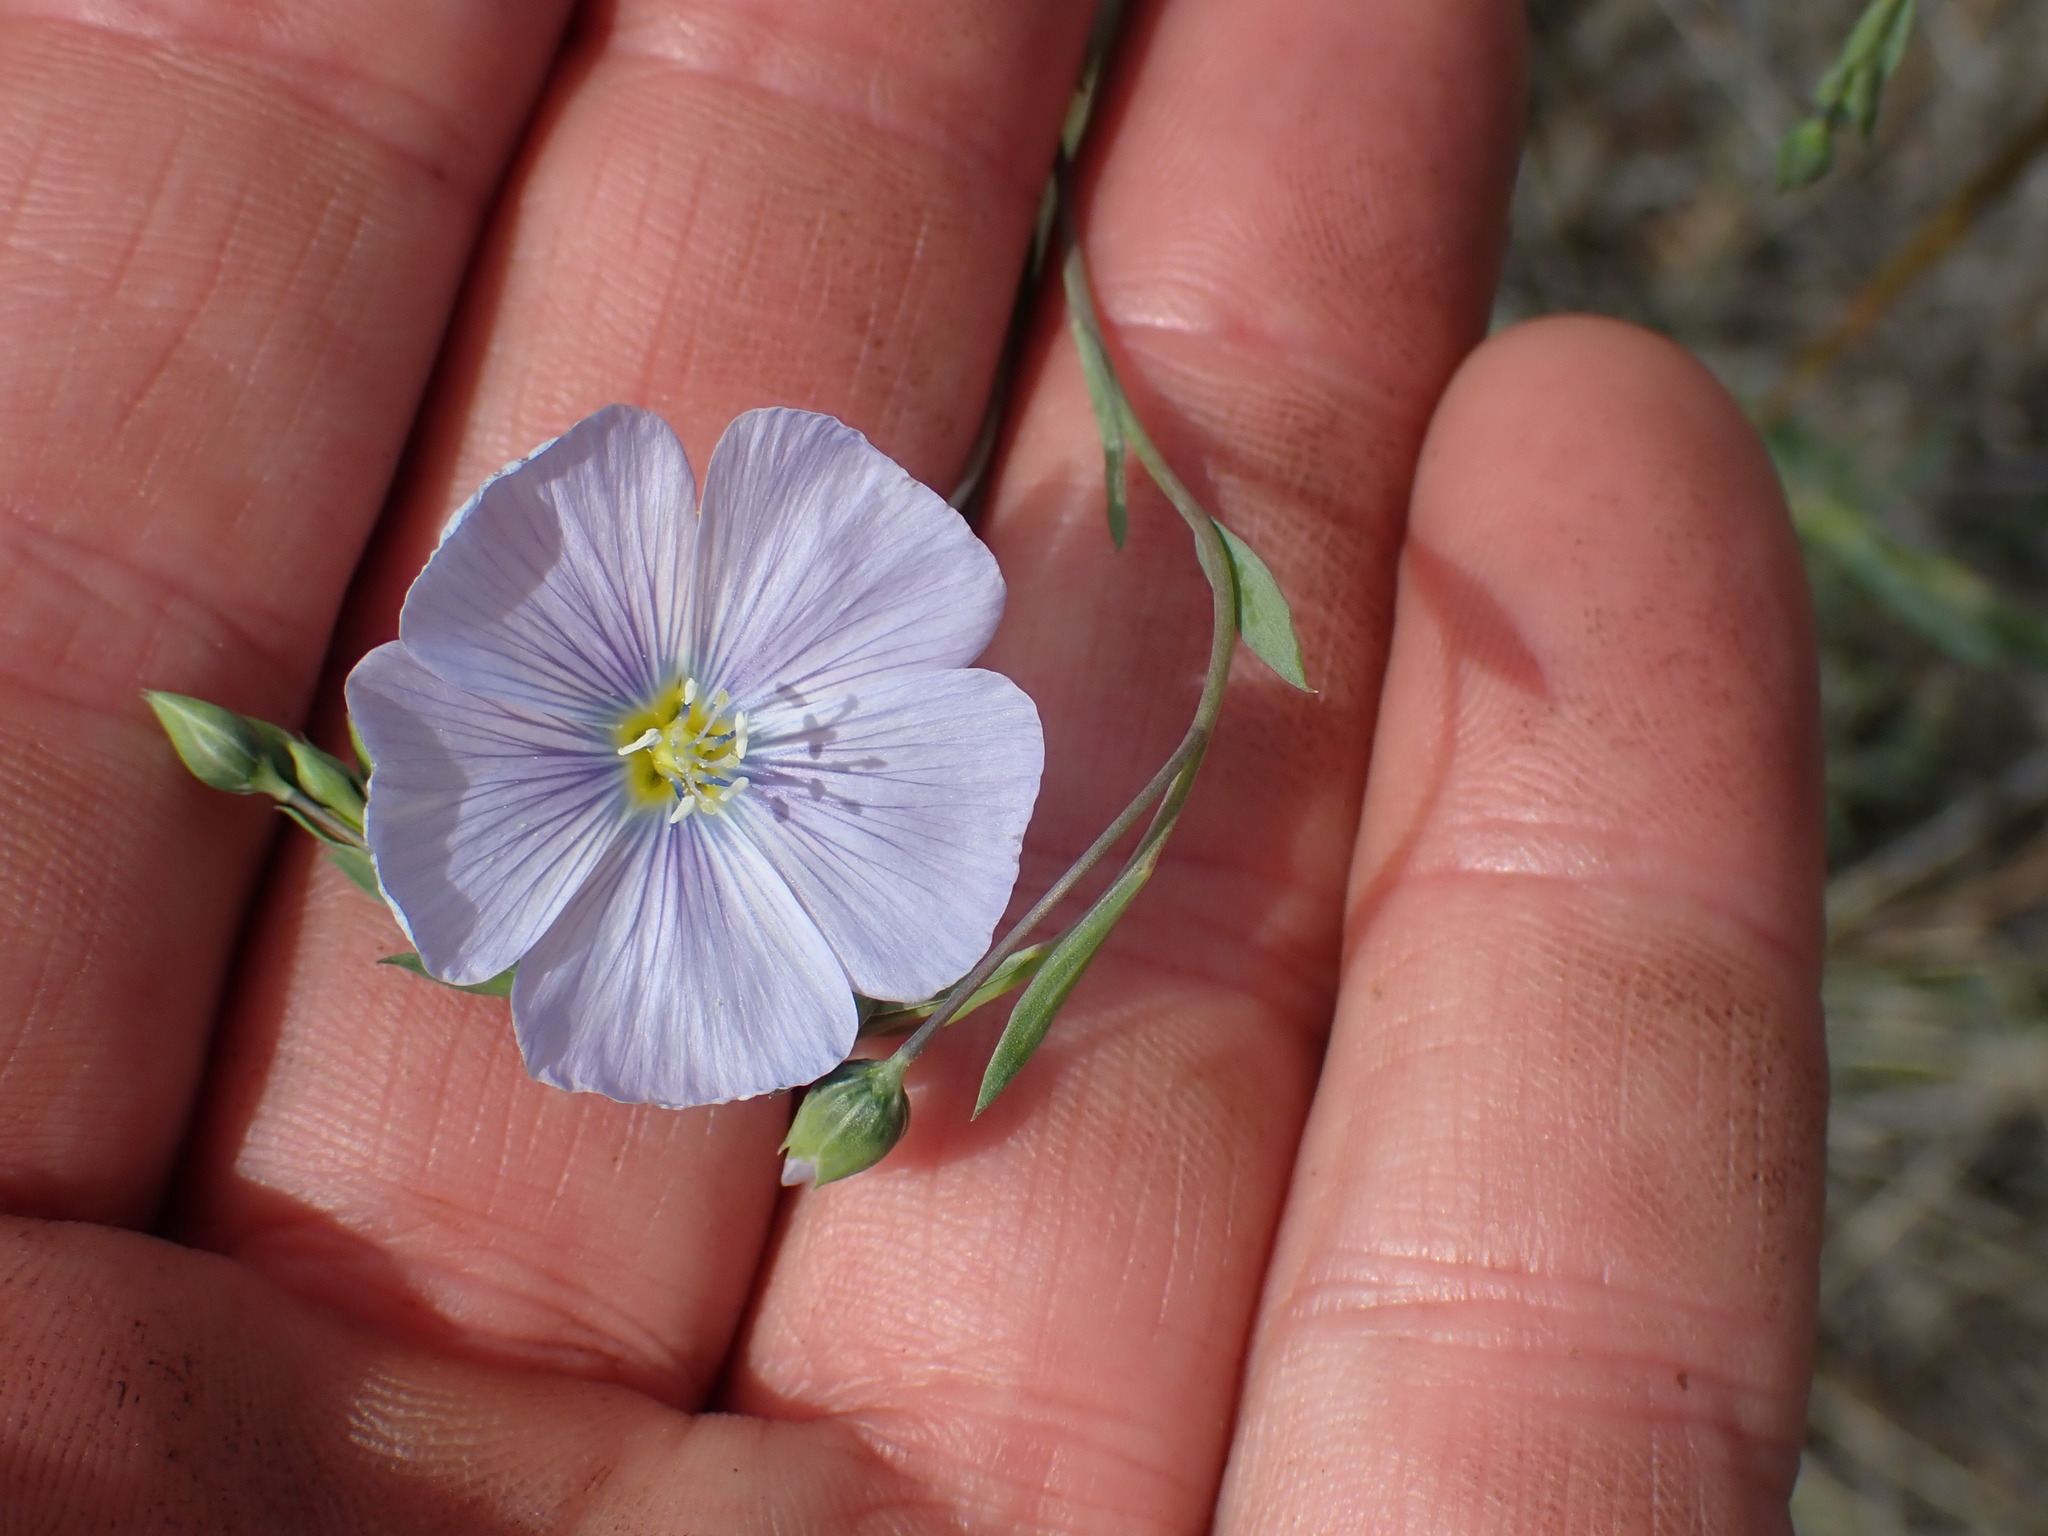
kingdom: Plantae
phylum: Tracheophyta
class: Magnoliopsida
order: Malpighiales
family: Linaceae
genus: Linum
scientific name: Linum lewisii
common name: Prairie flax
